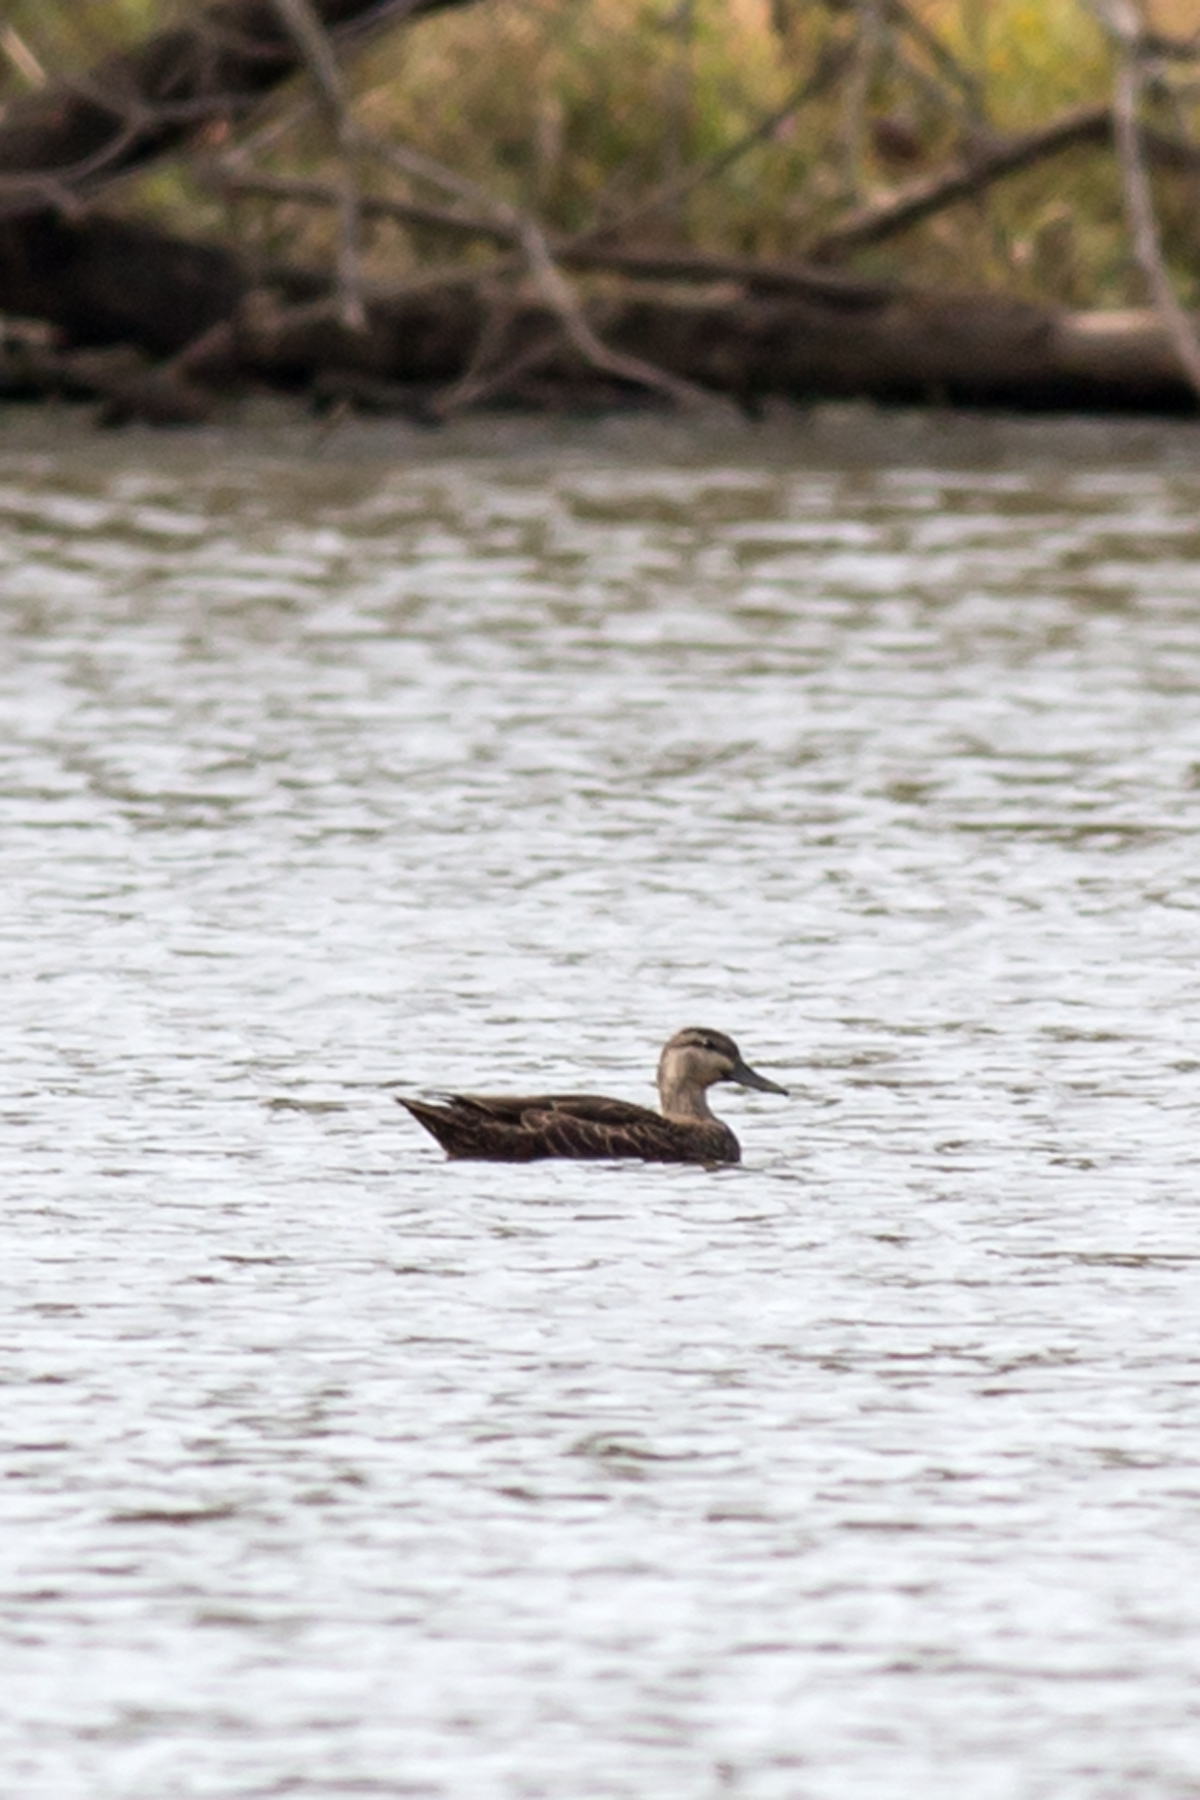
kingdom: Animalia
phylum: Chordata
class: Aves
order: Anseriformes
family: Anatidae
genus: Anas
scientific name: Anas rubripes
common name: American black duck
